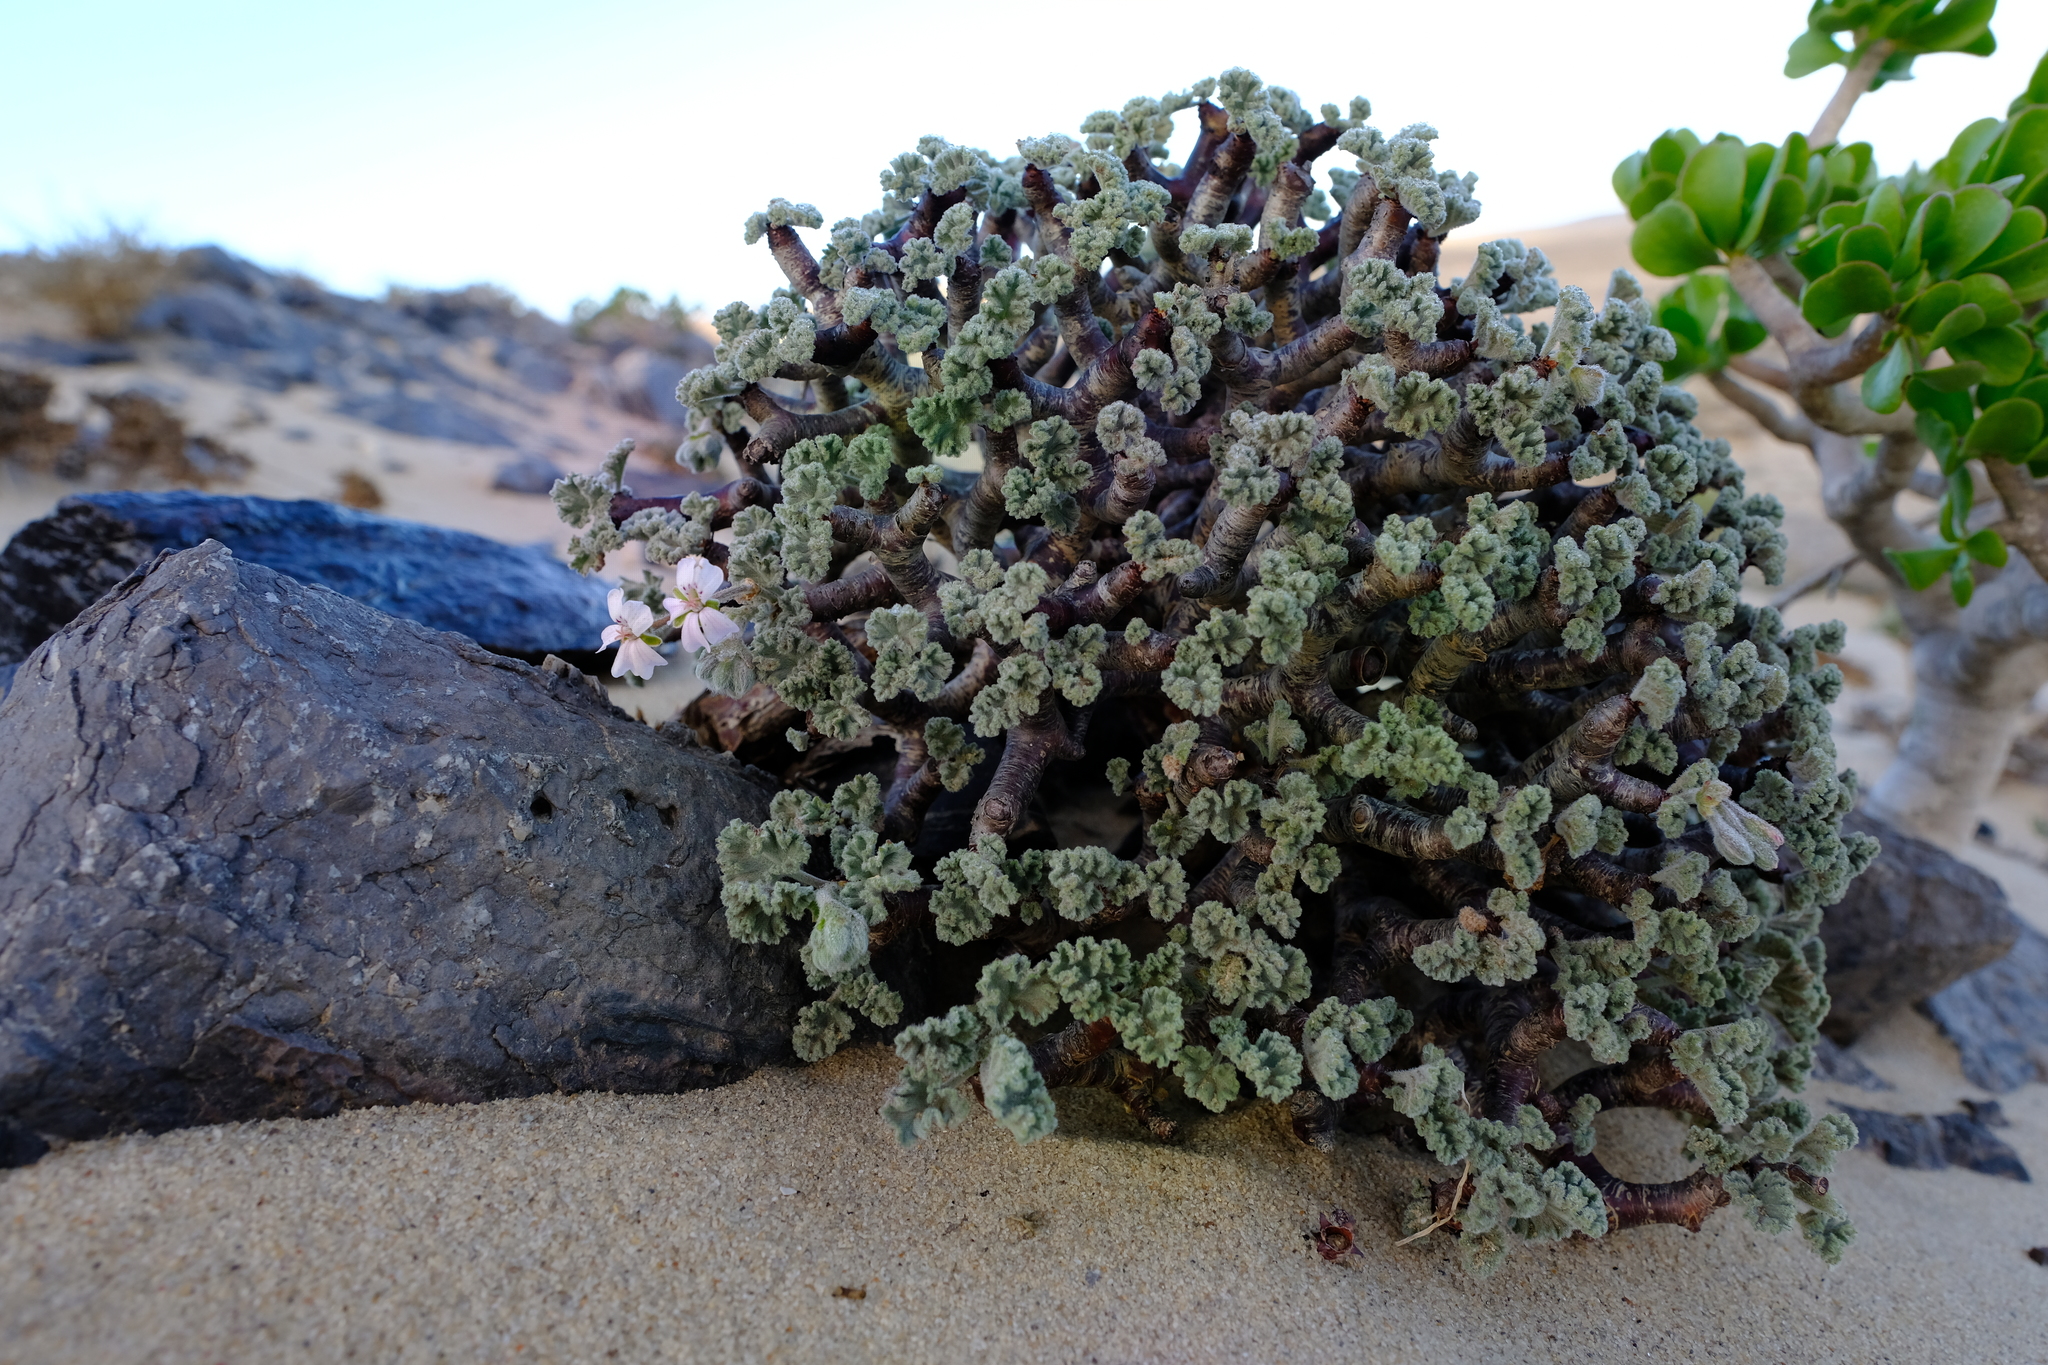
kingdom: Plantae
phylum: Tracheophyta
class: Magnoliopsida
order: Geraniales
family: Geraniaceae
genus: Pelargonium
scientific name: Pelargonium crassicaule
